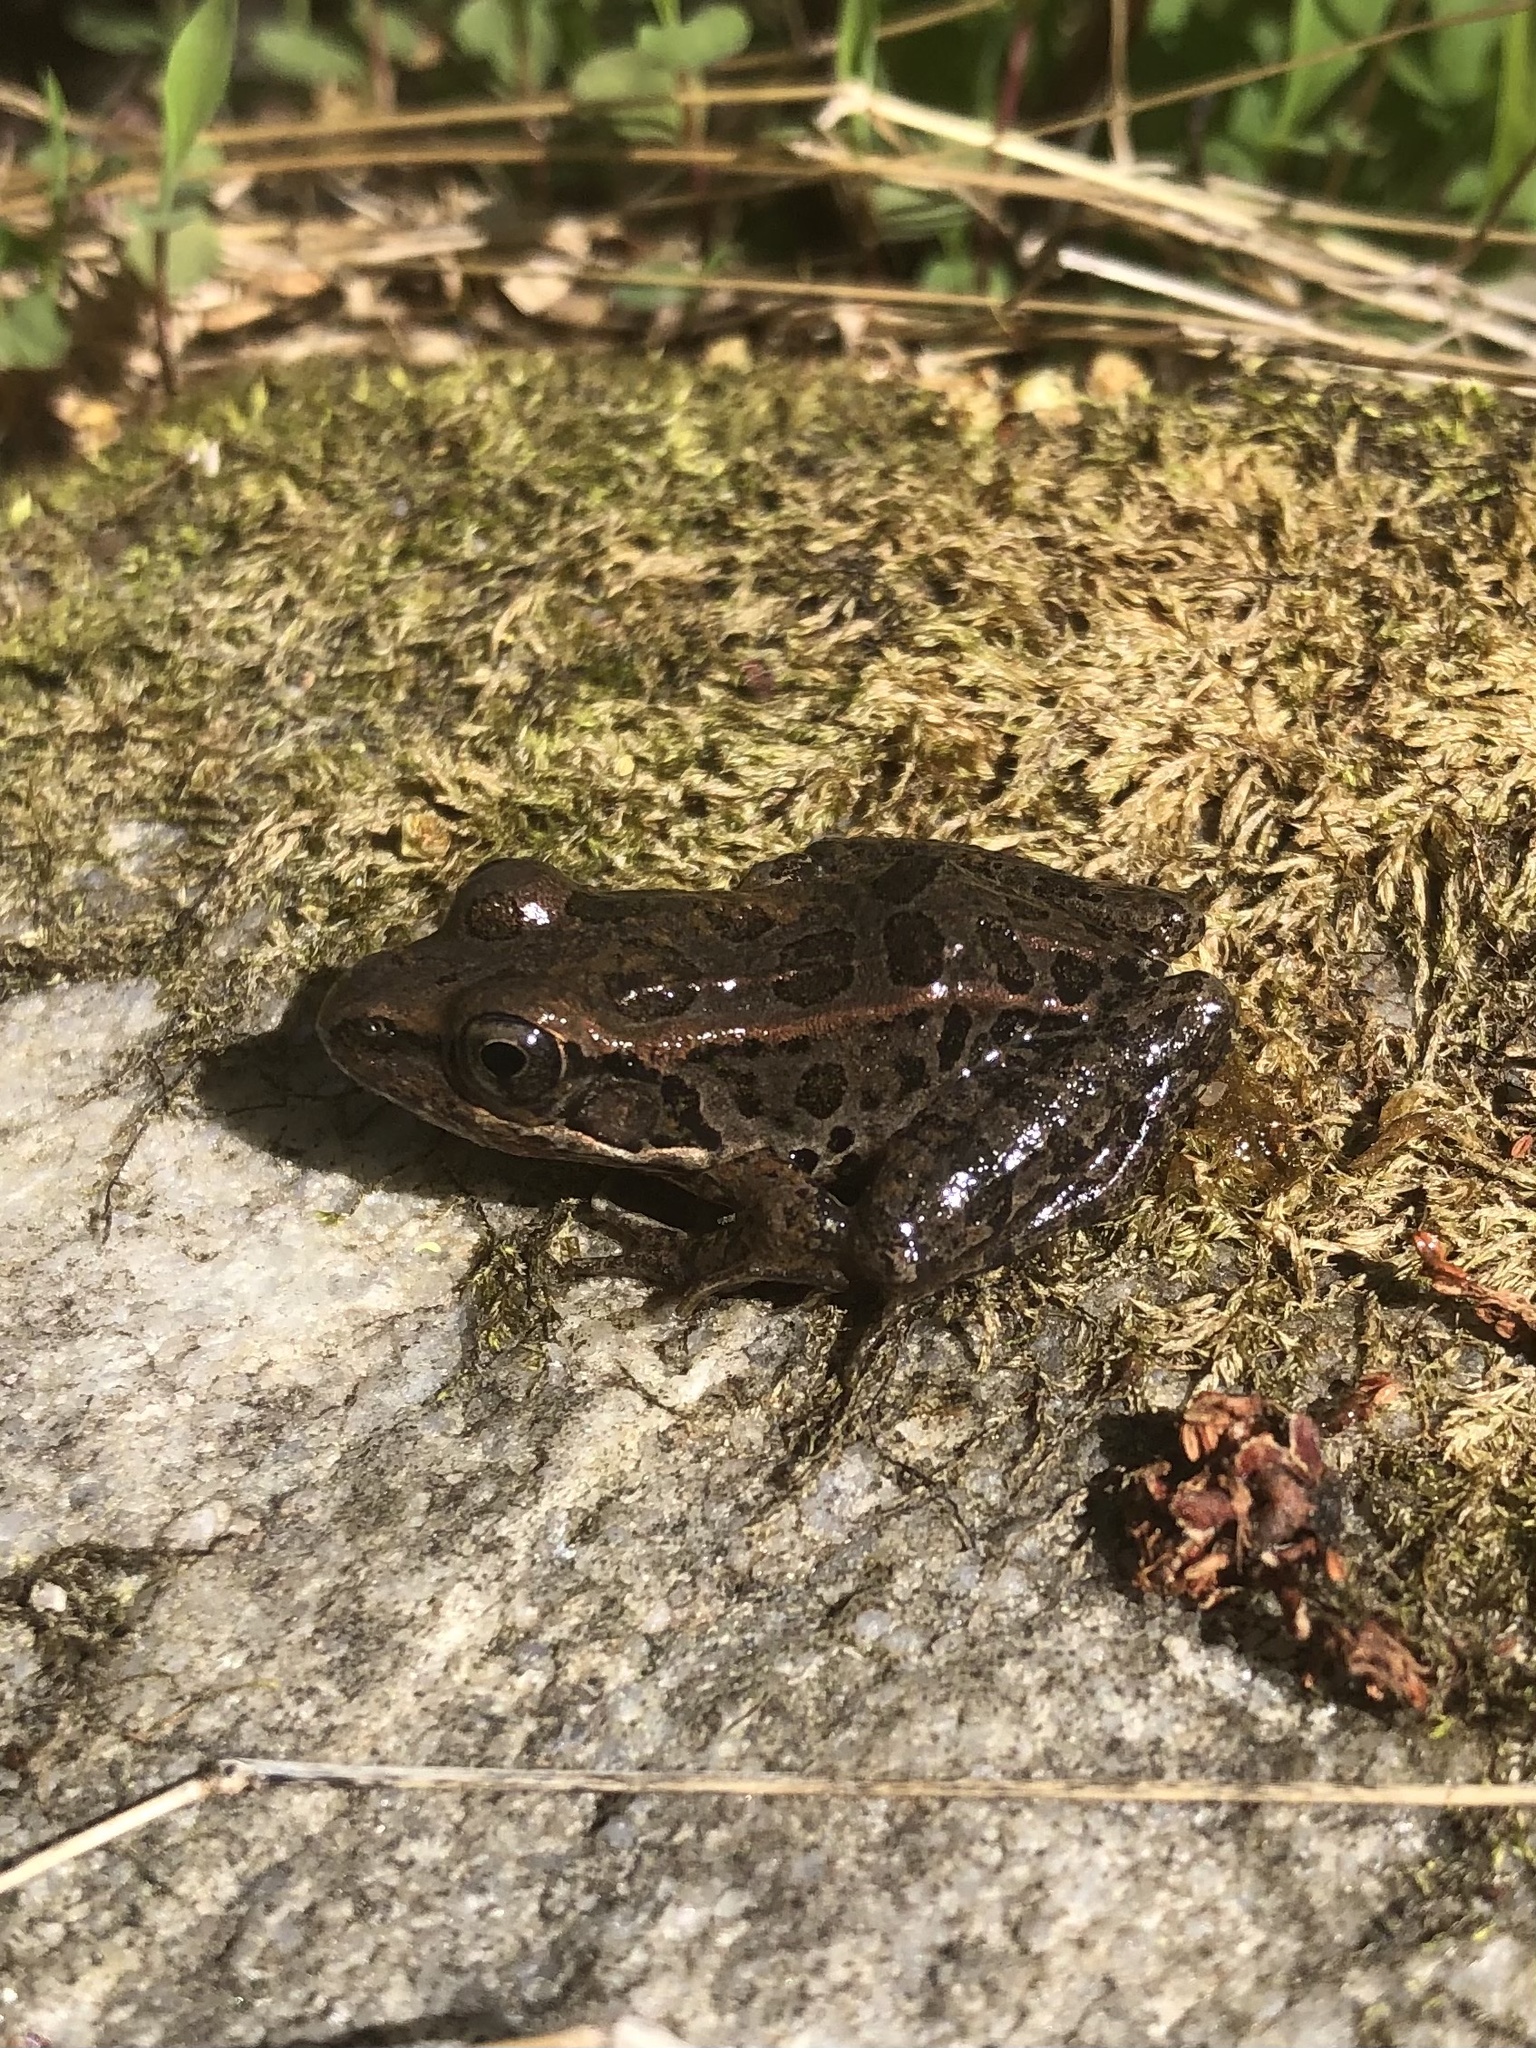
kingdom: Animalia
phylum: Chordata
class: Amphibia
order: Anura
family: Ranidae
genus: Lithobates
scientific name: Lithobates palustris
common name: Pickerel frog
